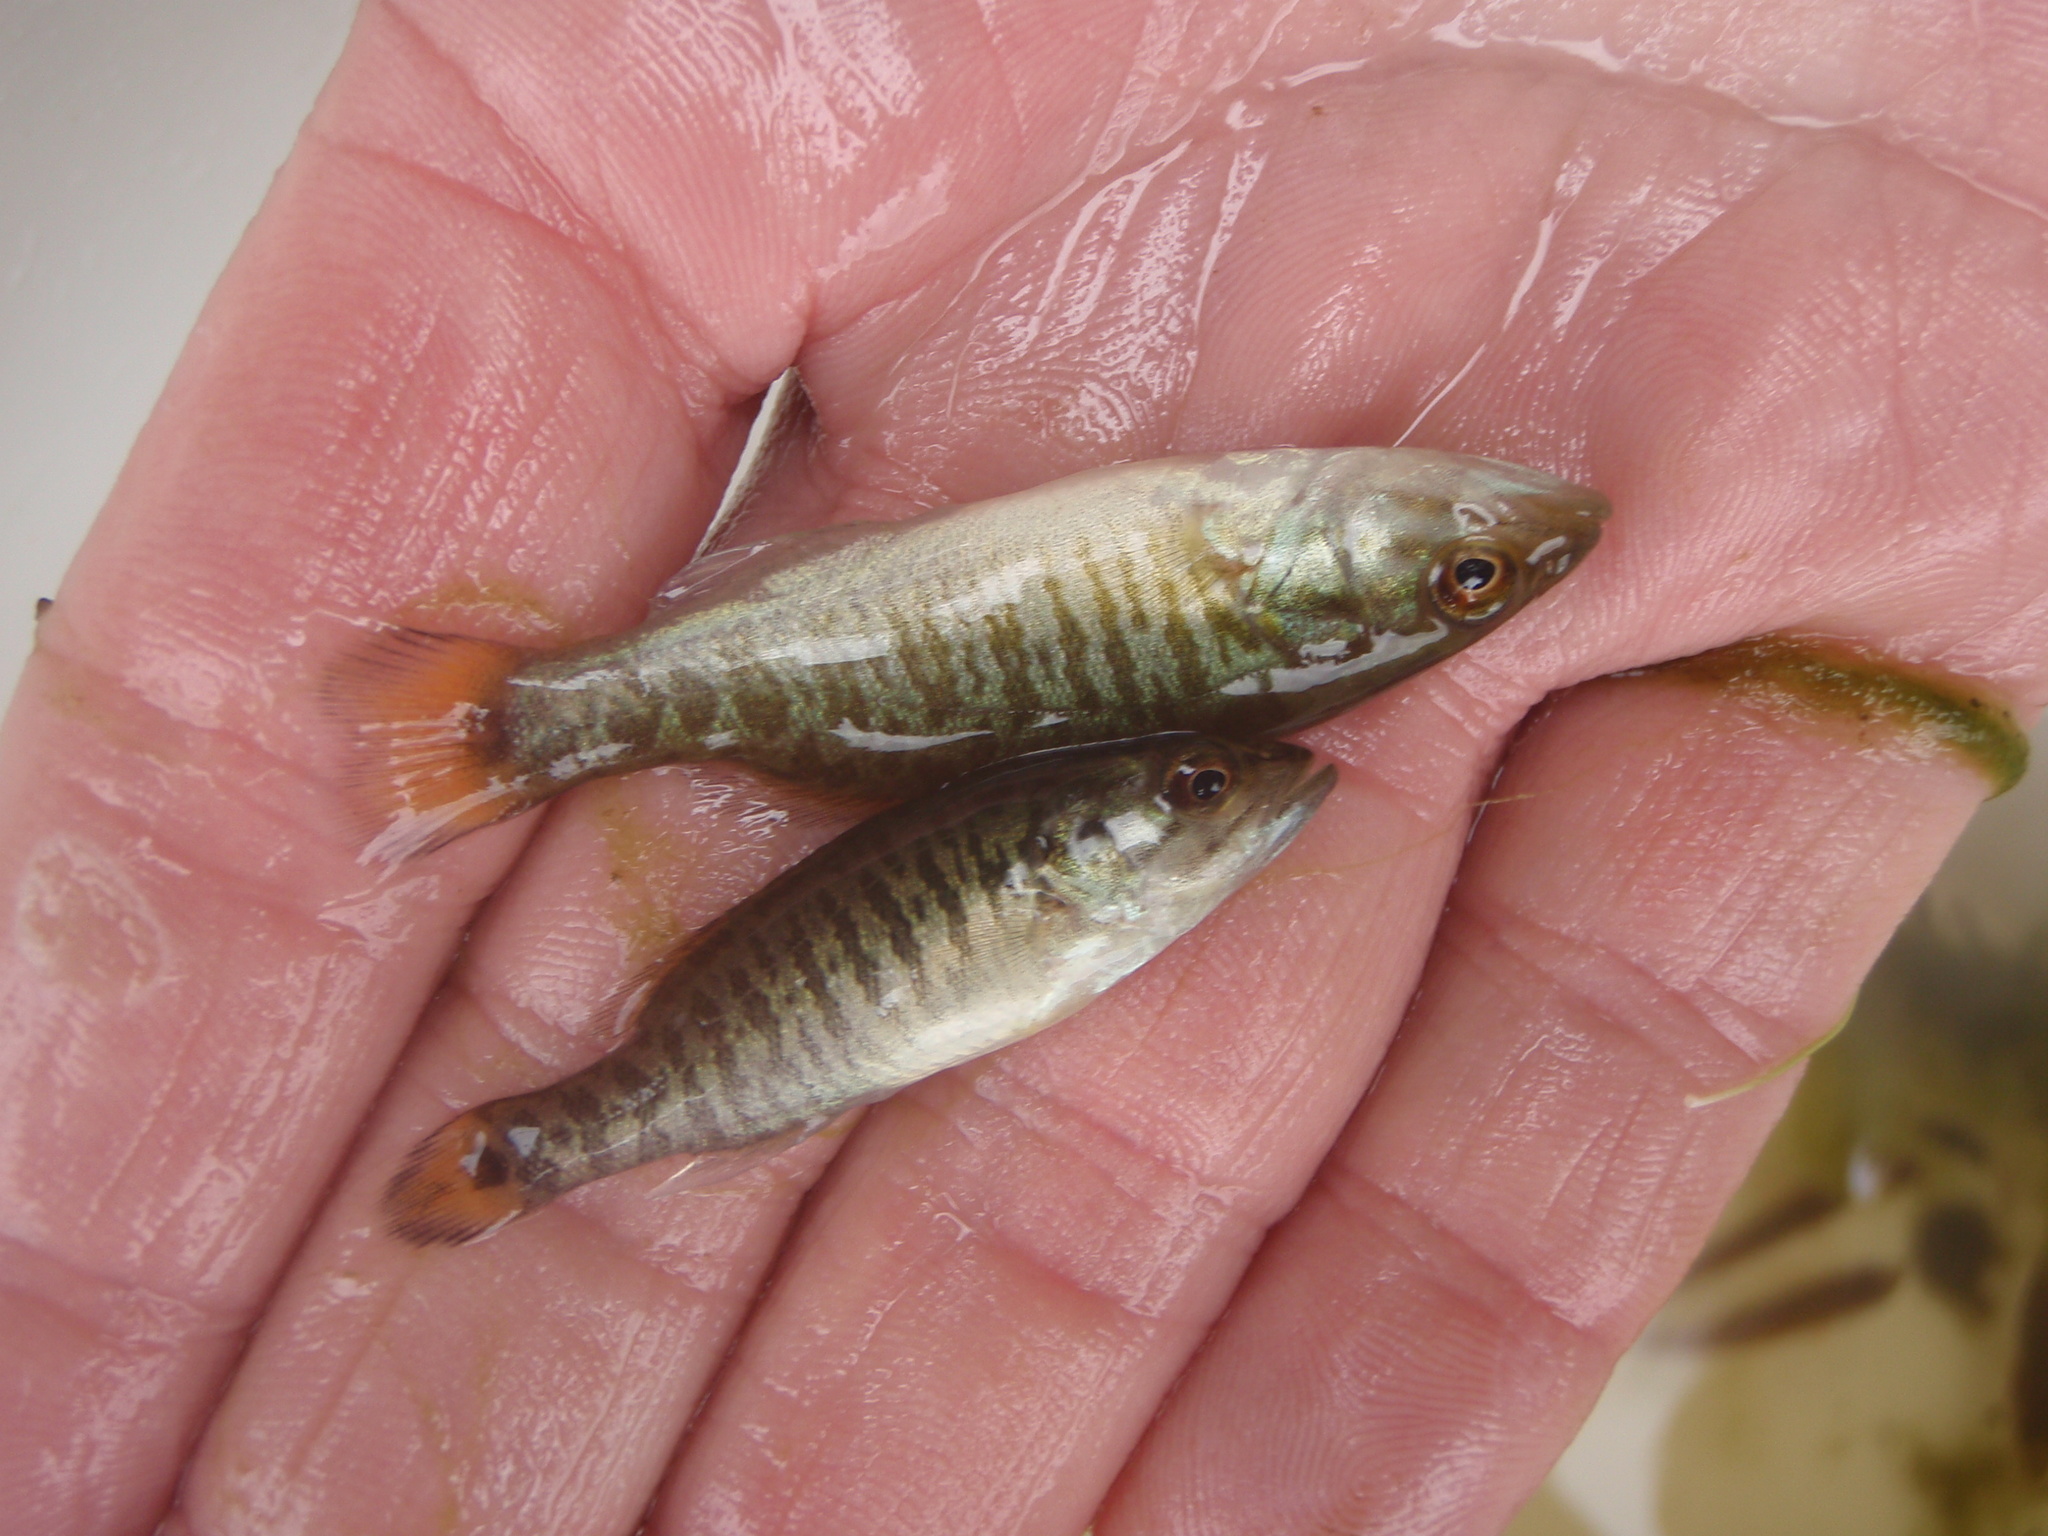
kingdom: Animalia
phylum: Chordata
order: Perciformes
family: Centrarchidae
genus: Micropterus
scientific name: Micropterus dolomieu
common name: Smallmouth bass
